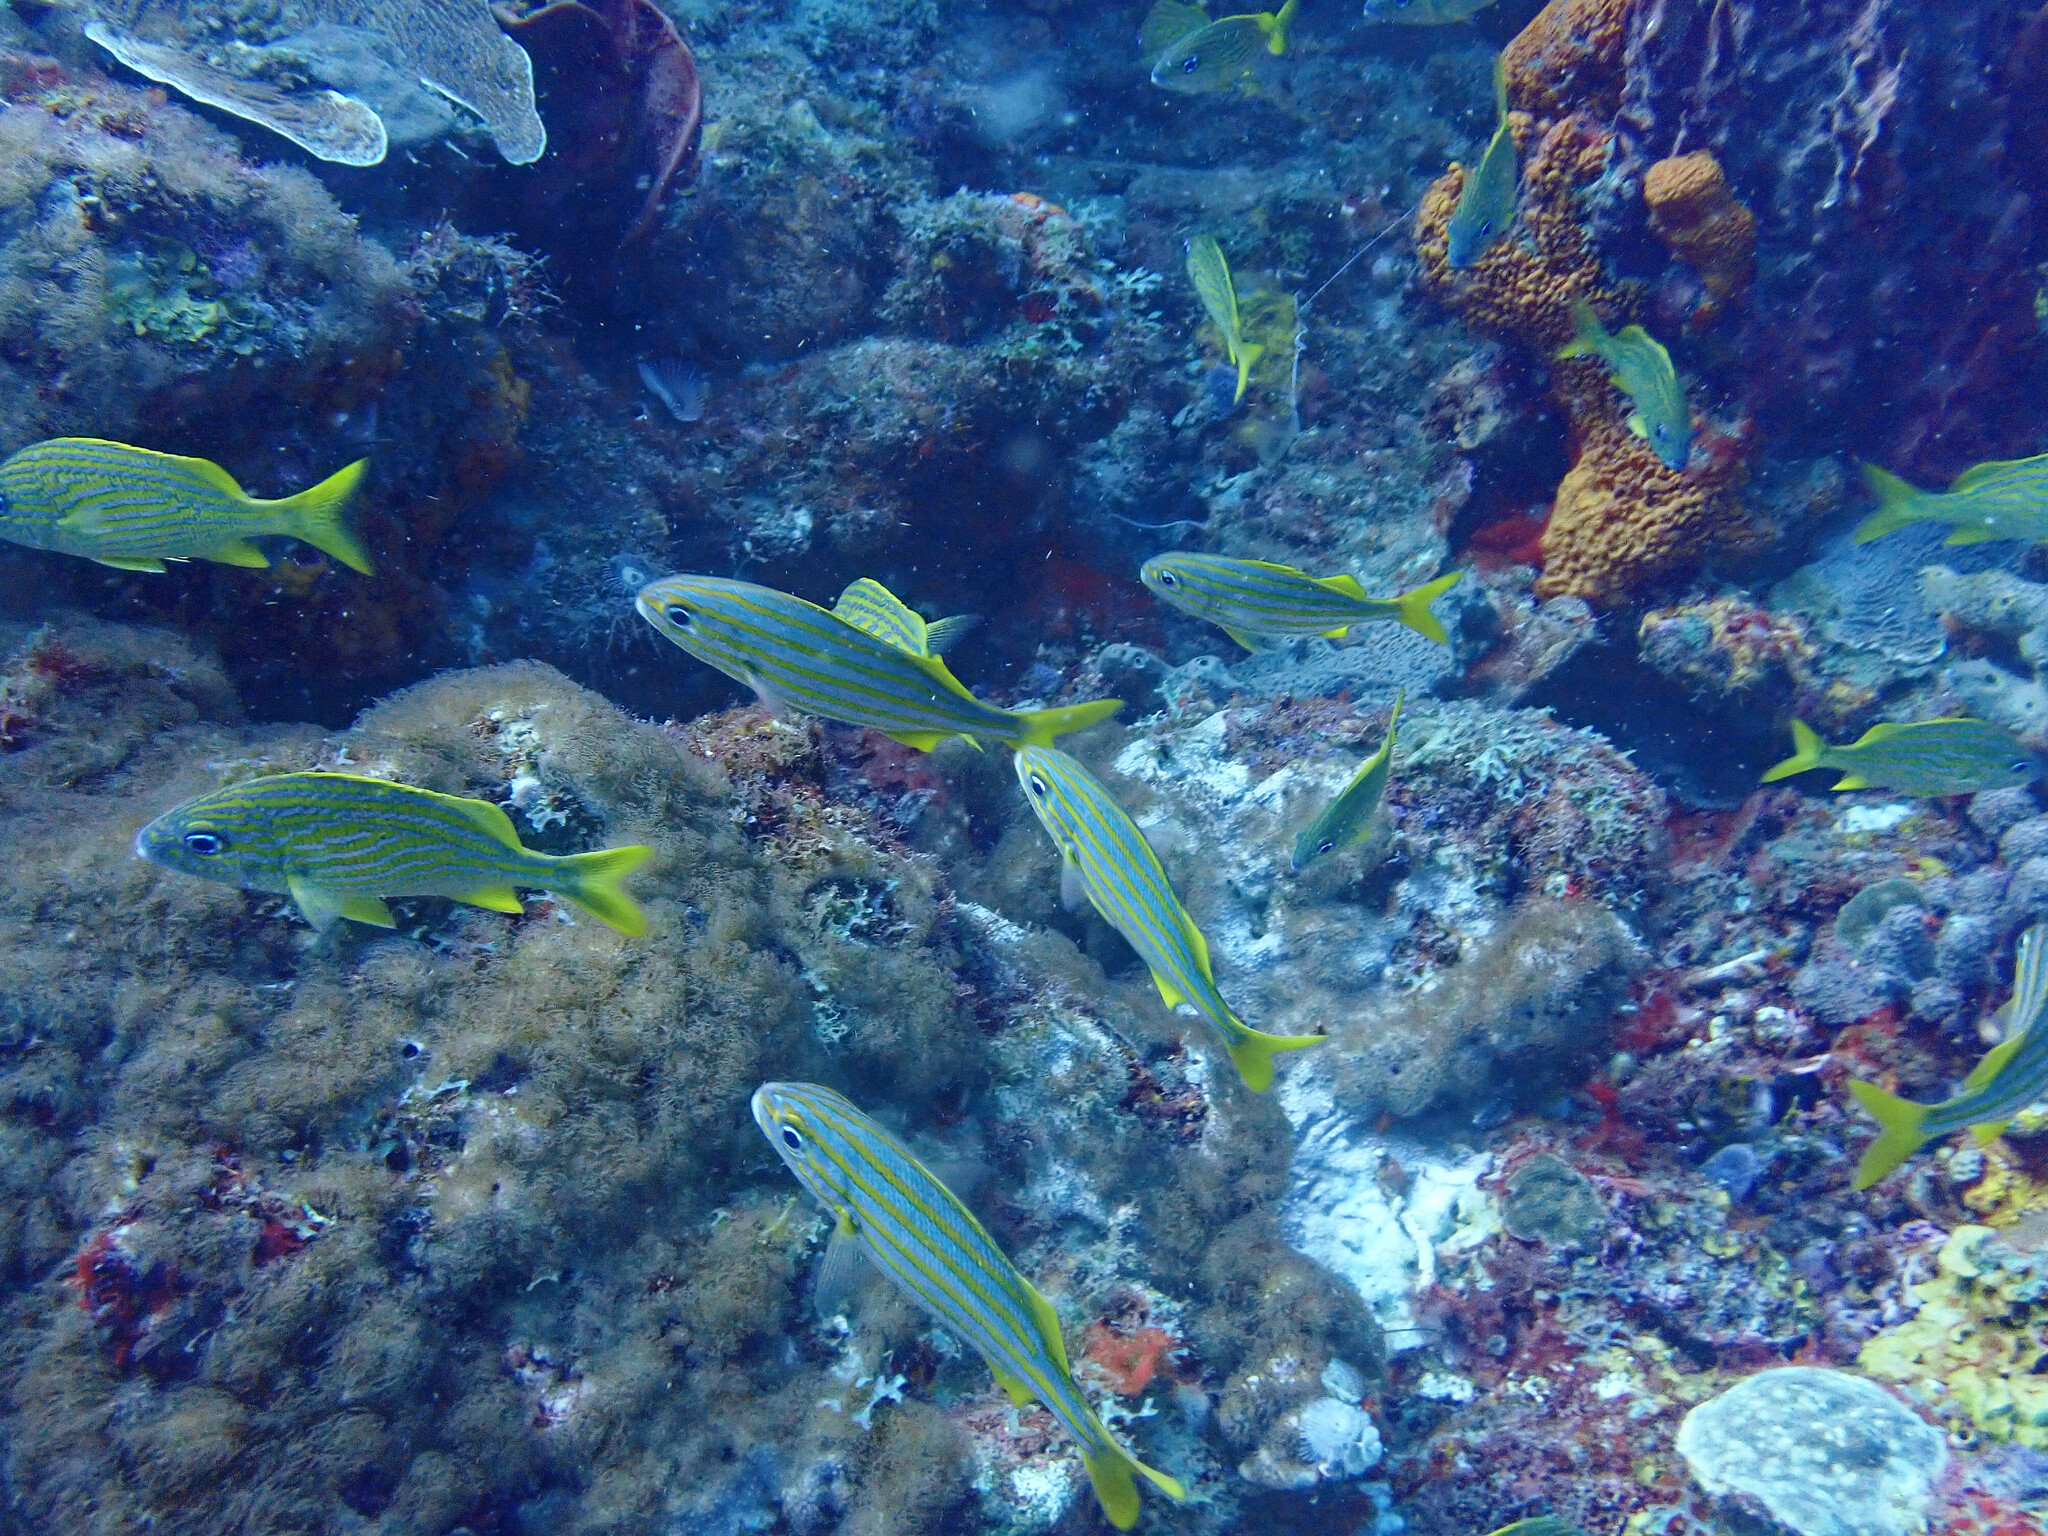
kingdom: Animalia
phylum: Chordata
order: Perciformes
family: Haemulidae
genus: Haemulon
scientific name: Haemulon chrysargyreum
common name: Smallmouth grunt
